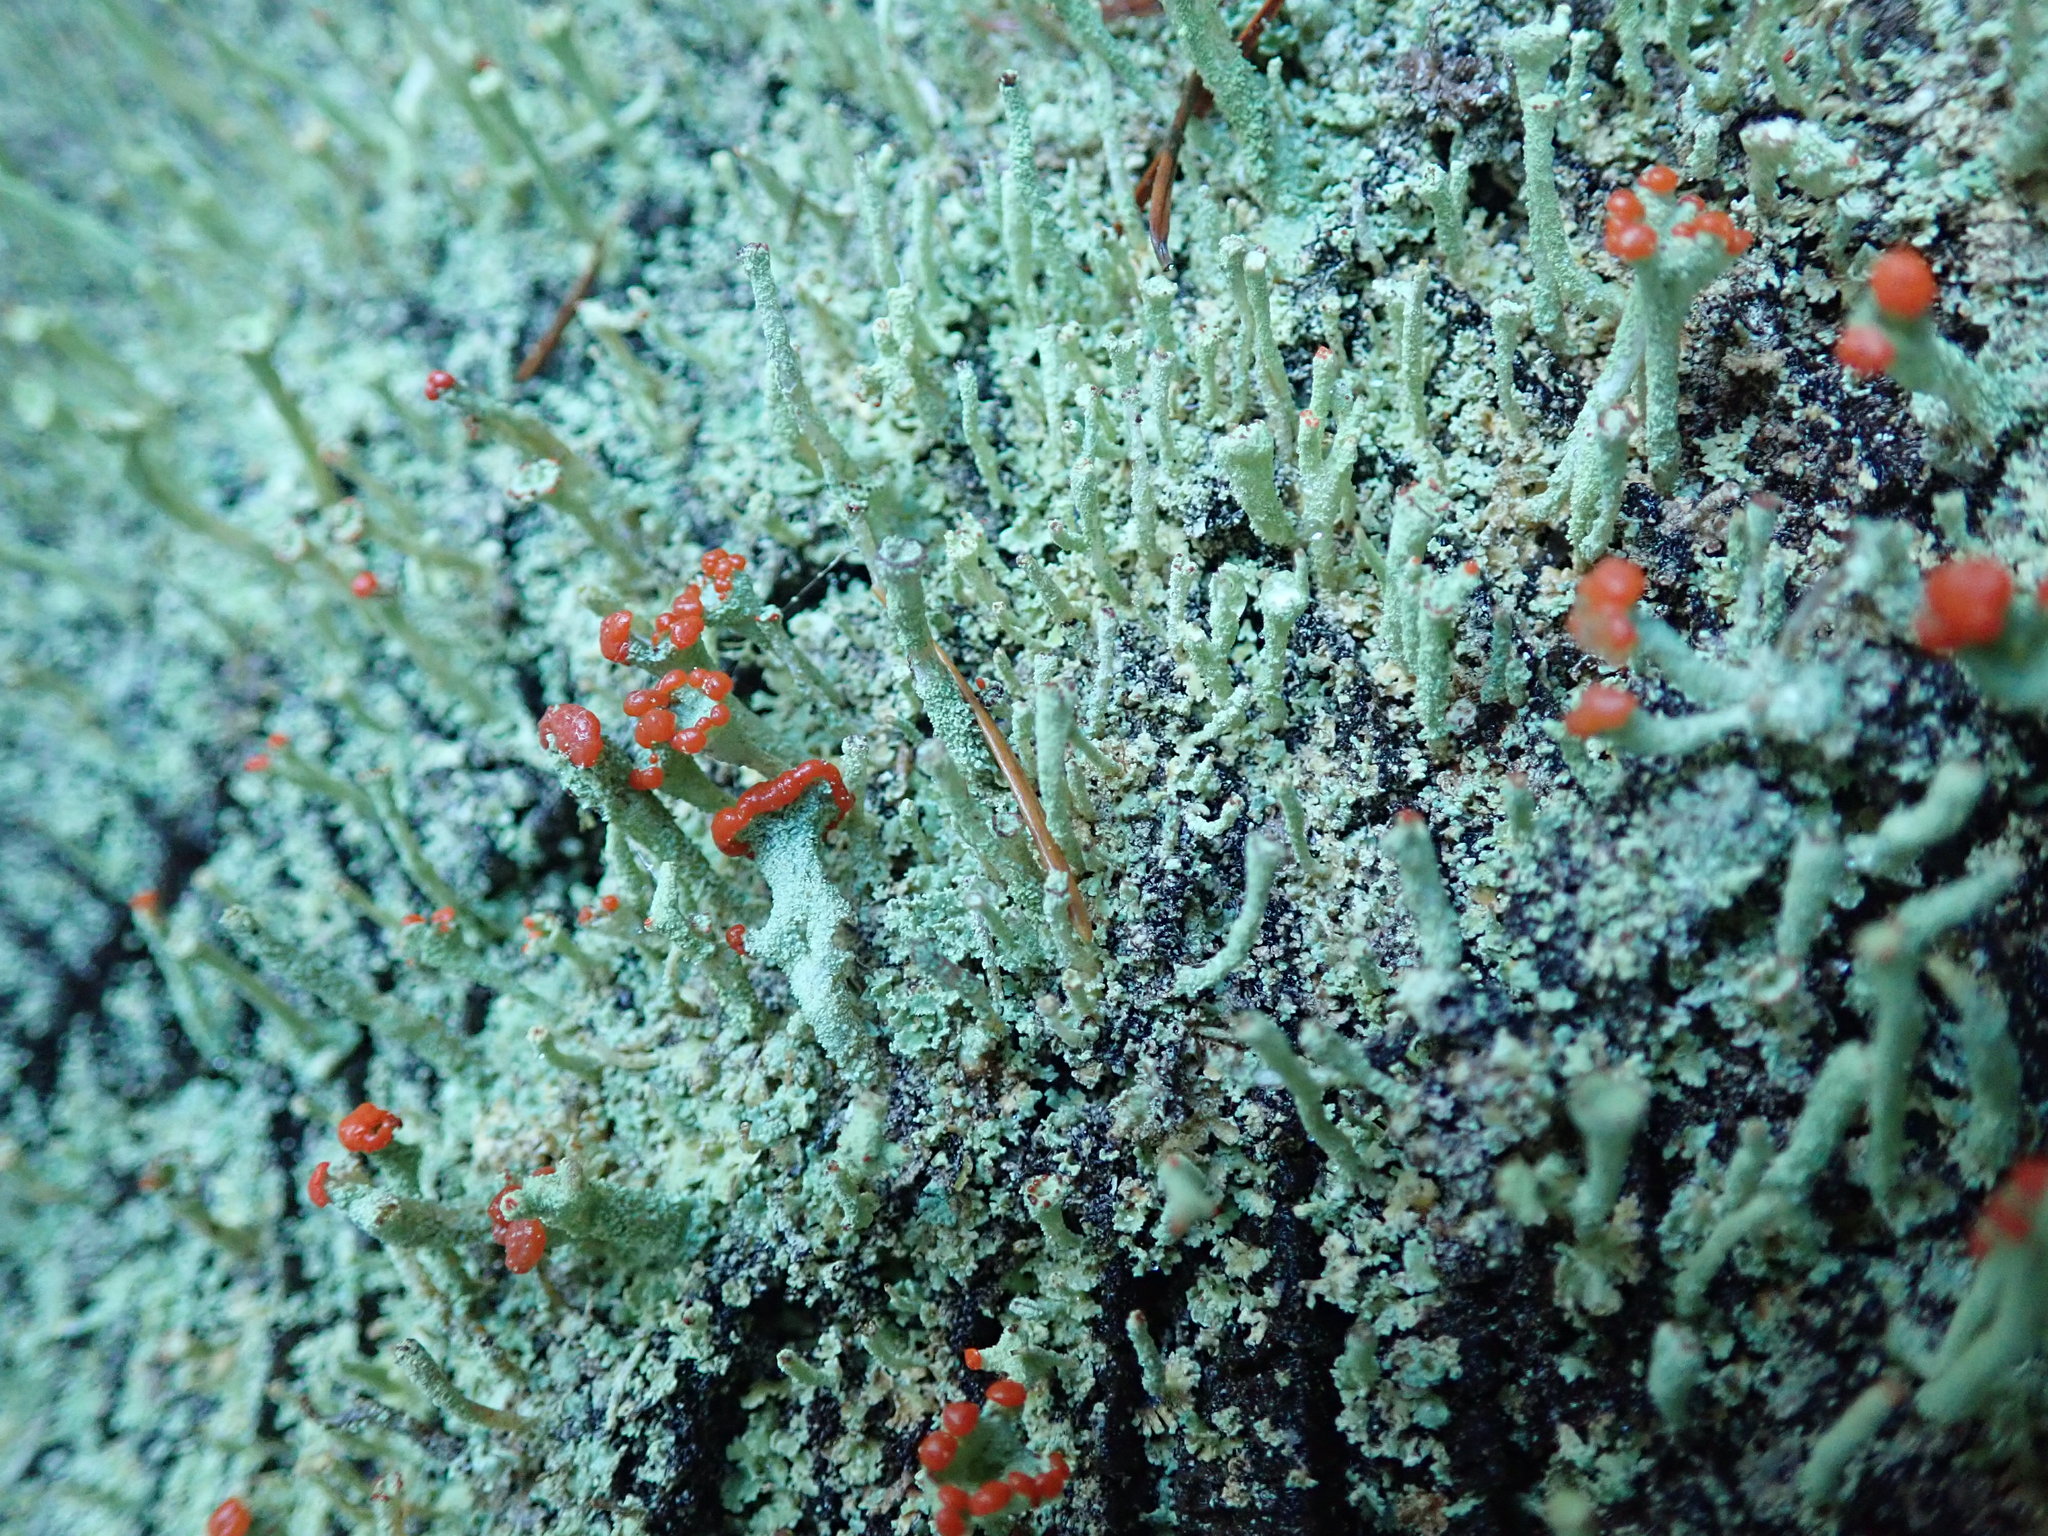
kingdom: Fungi
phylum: Ascomycota
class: Lecanoromycetes
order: Lecanorales
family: Cladoniaceae
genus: Cladonia
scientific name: Cladonia transcendens
